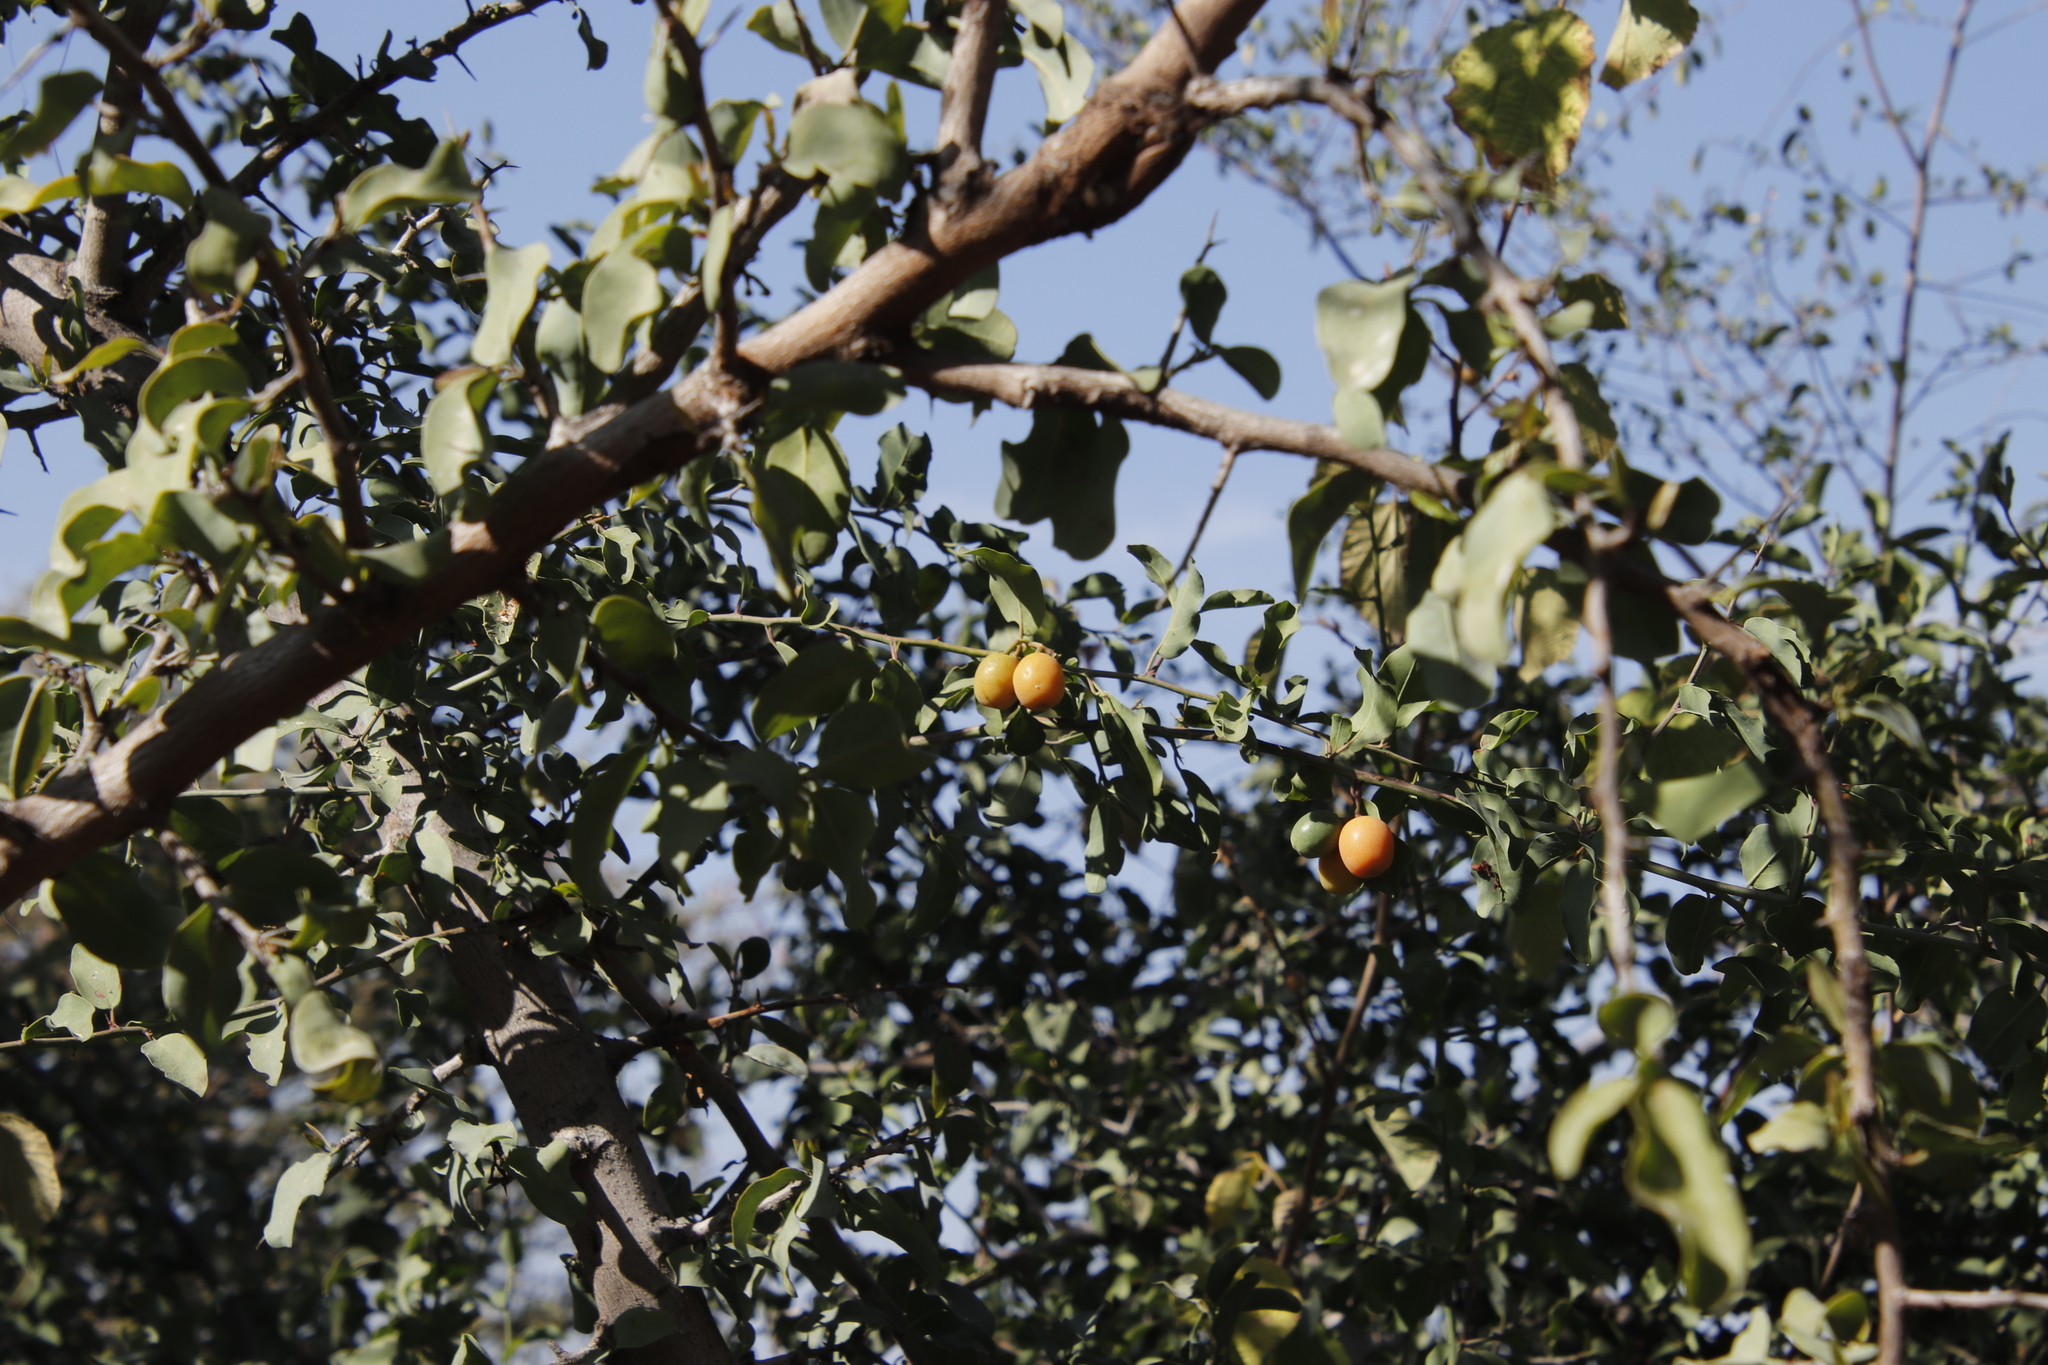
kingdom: Plantae
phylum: Tracheophyta
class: Magnoliopsida
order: Santalales
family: Ximeniaceae
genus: Ximenia
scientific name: Ximenia americana
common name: Tallowwood
